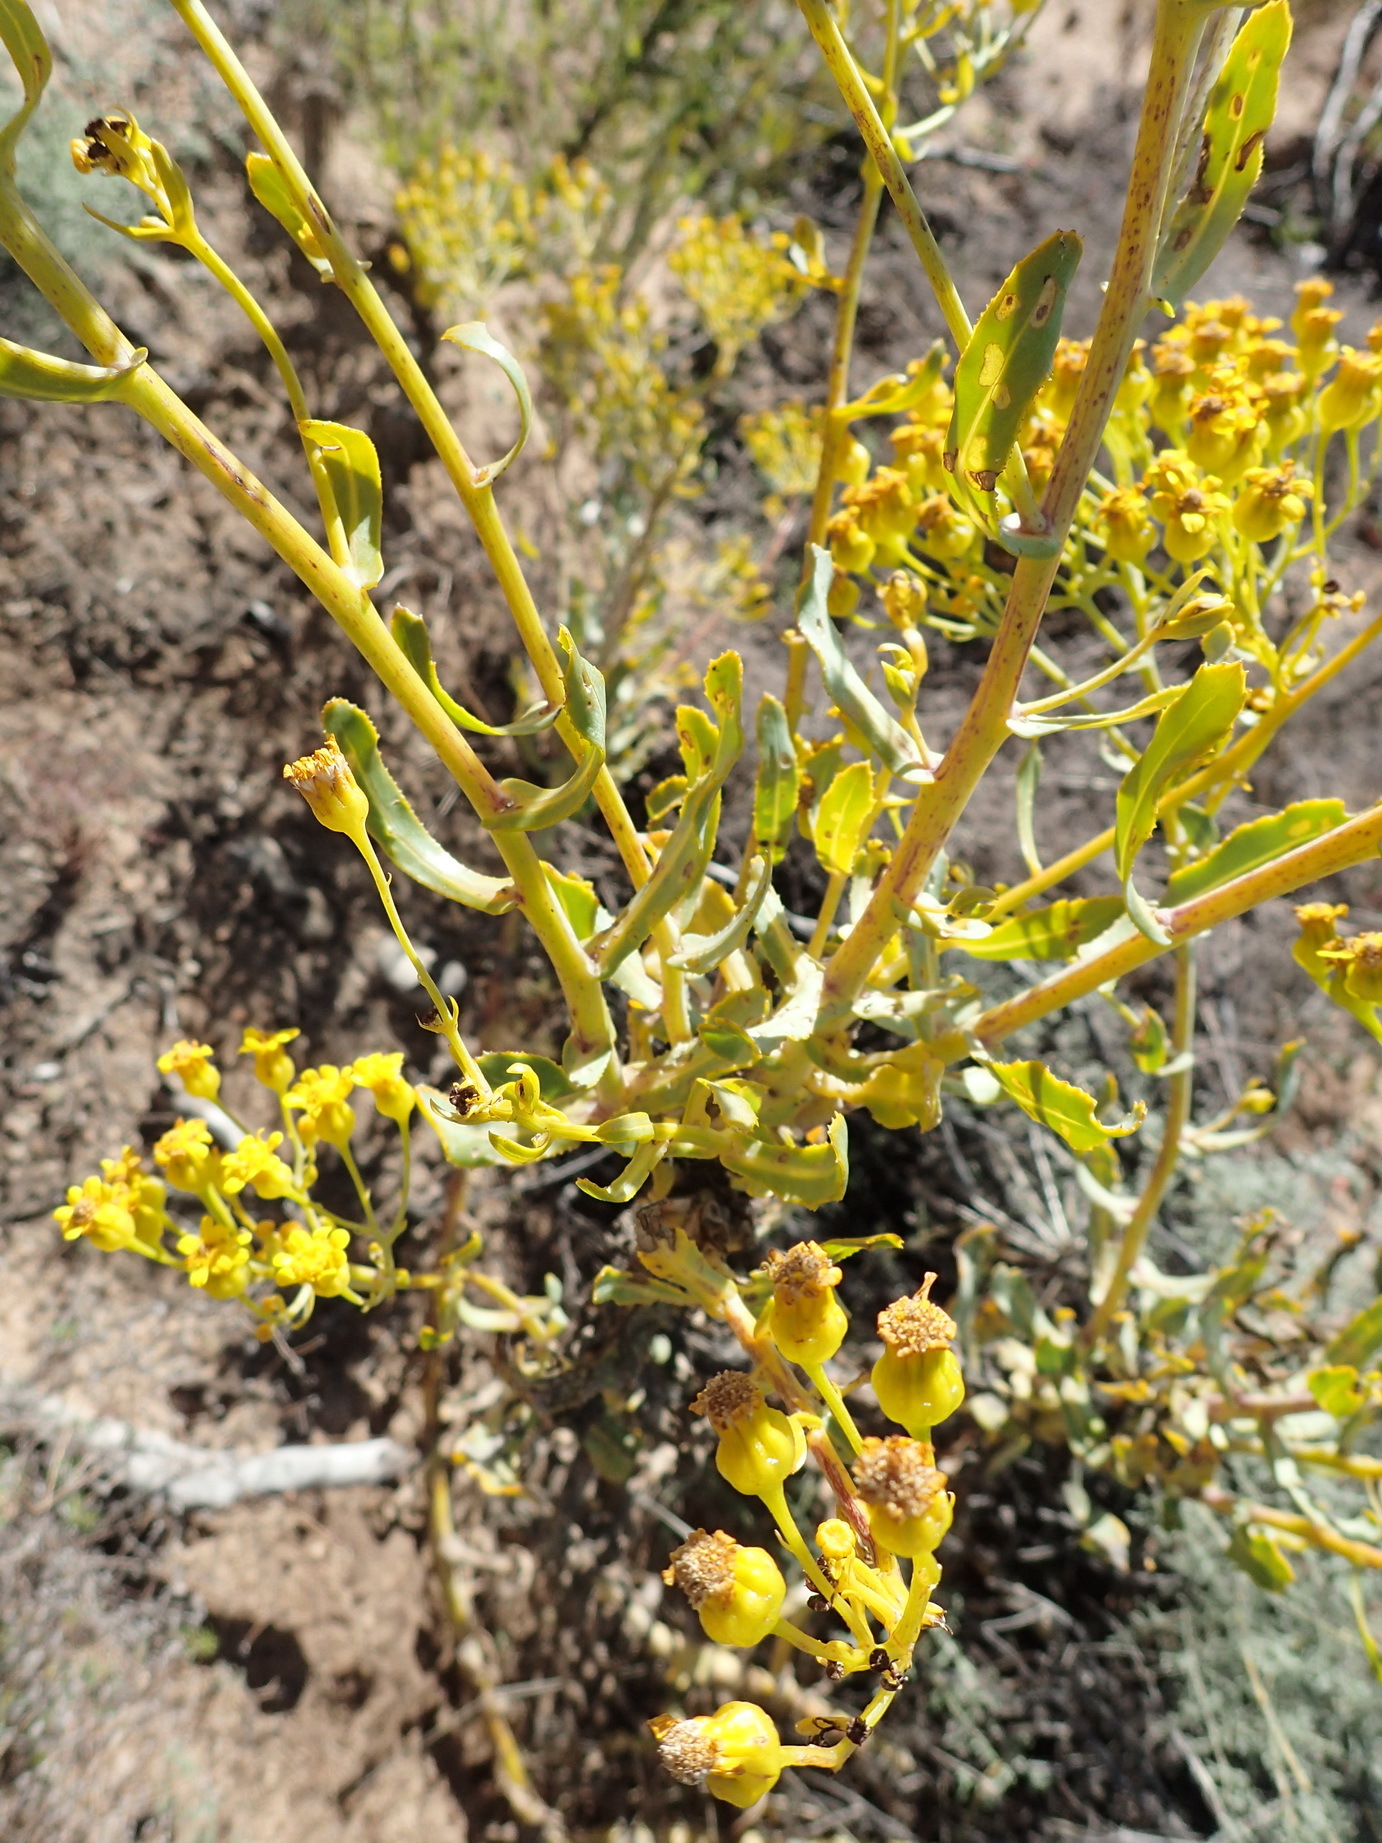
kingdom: Plantae
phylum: Tracheophyta
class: Magnoliopsida
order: Asterales
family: Asteraceae
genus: Othonna
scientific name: Othonna parviflora
